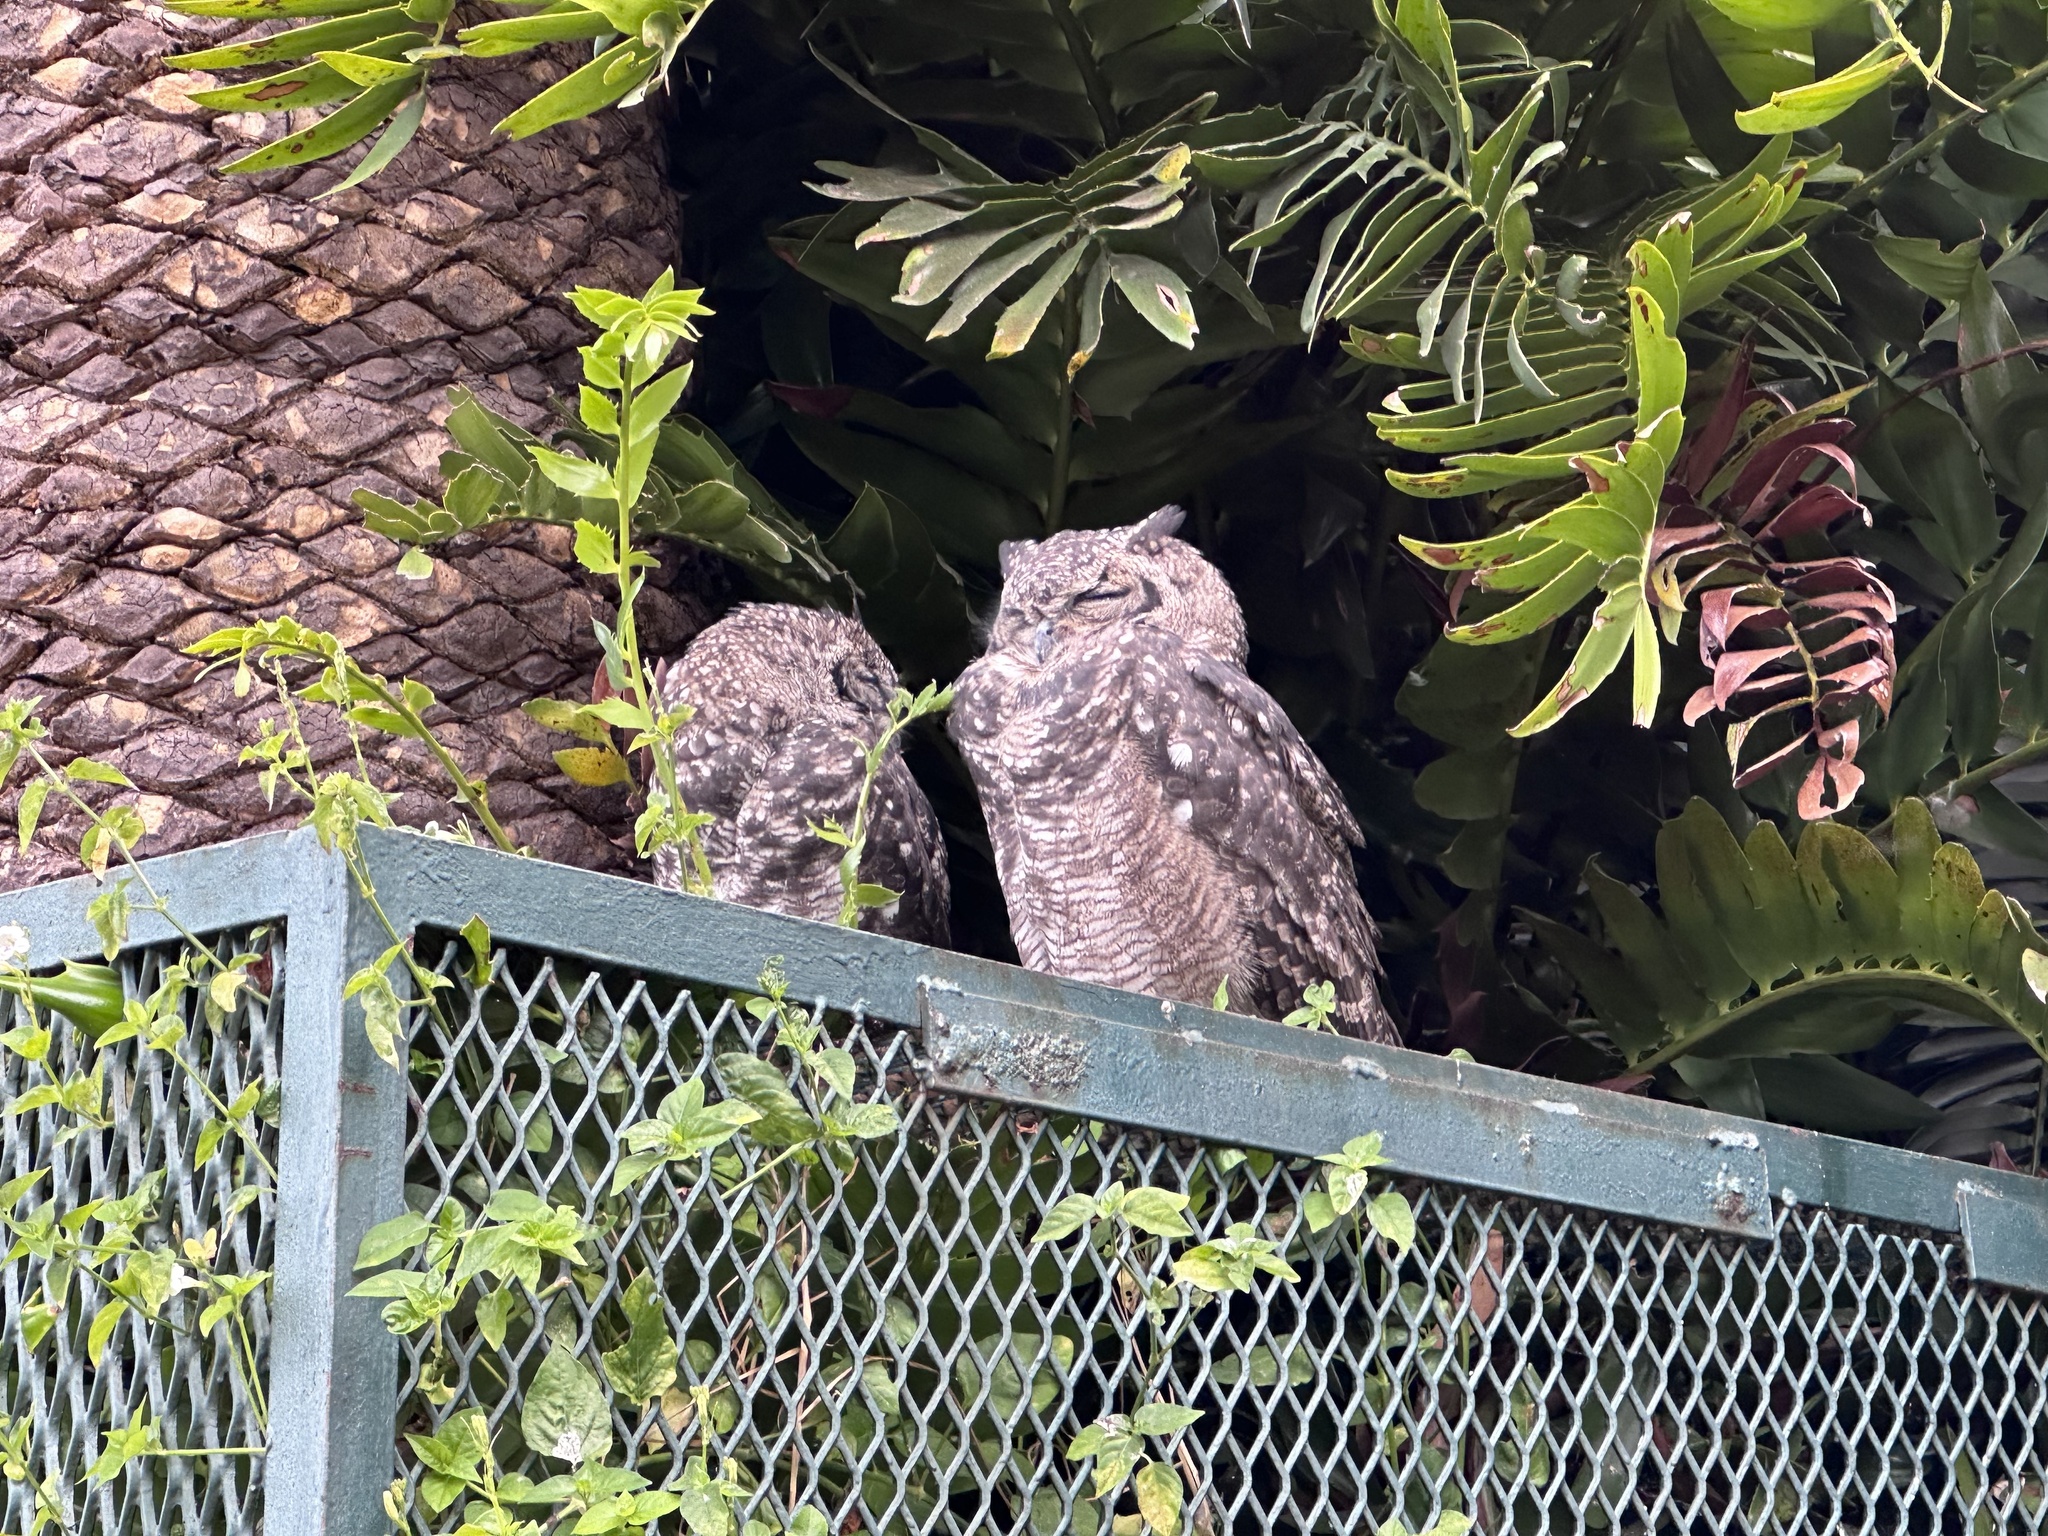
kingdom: Animalia
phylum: Chordata
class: Aves
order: Strigiformes
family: Strigidae
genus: Bubo
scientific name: Bubo africanus
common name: Spotted eagle-owl
